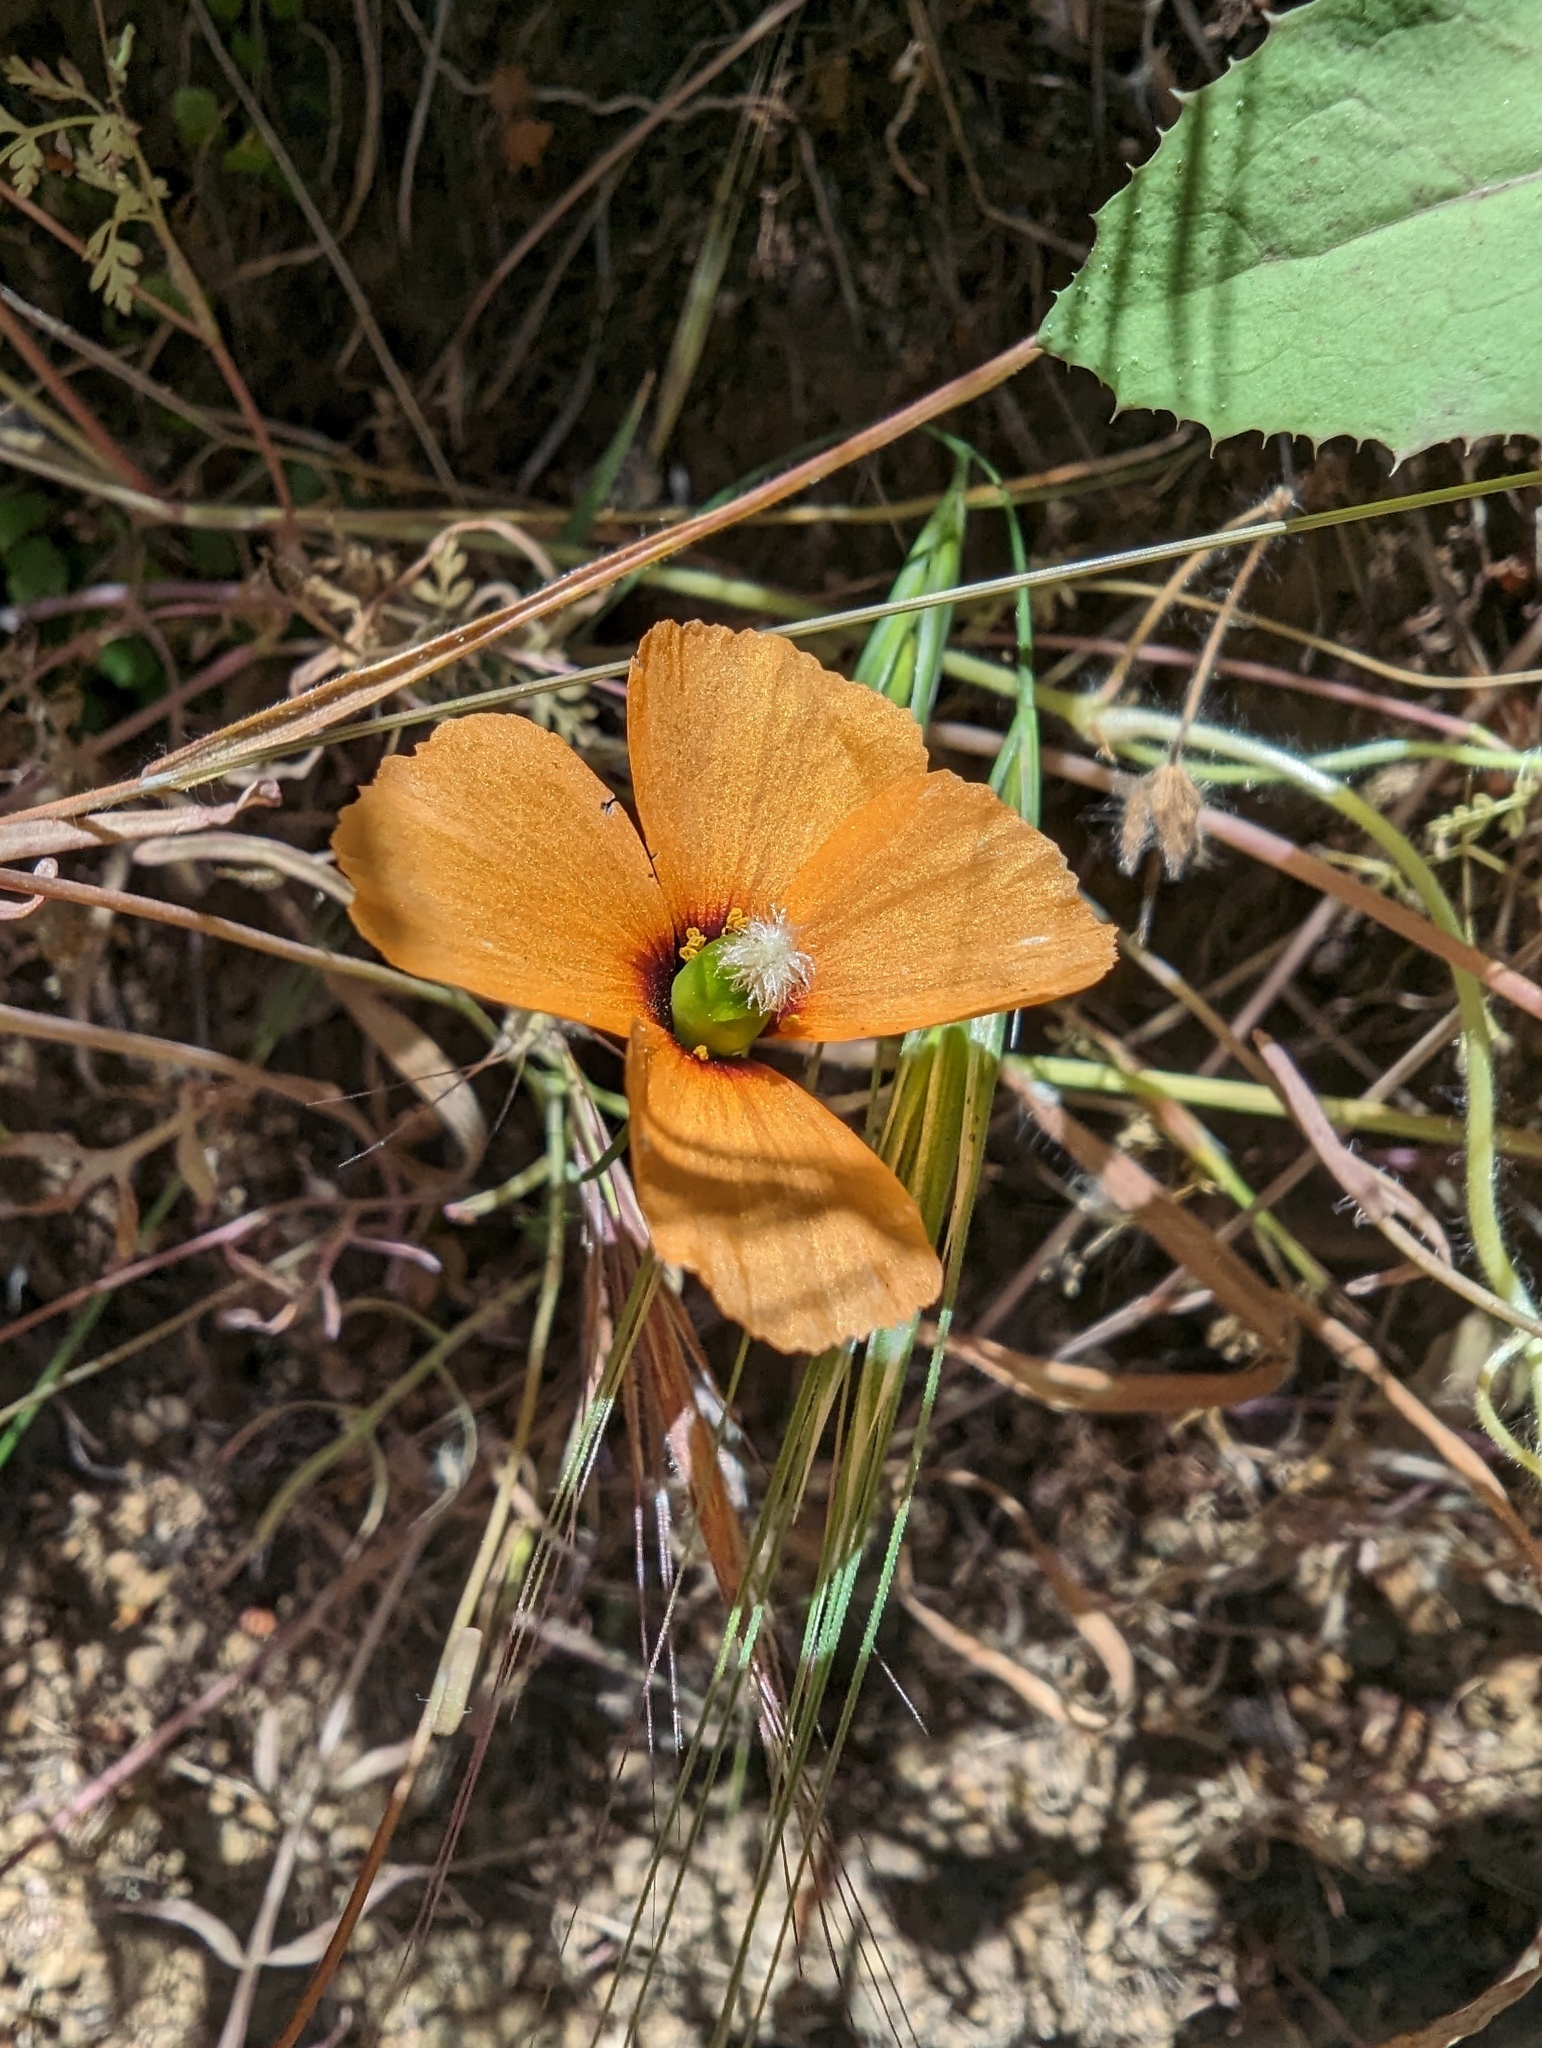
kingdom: Plantae
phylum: Tracheophyta
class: Magnoliopsida
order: Ranunculales
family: Papaveraceae
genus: Stylomecon
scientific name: Stylomecon heterophylla
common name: Flaming-poppy
